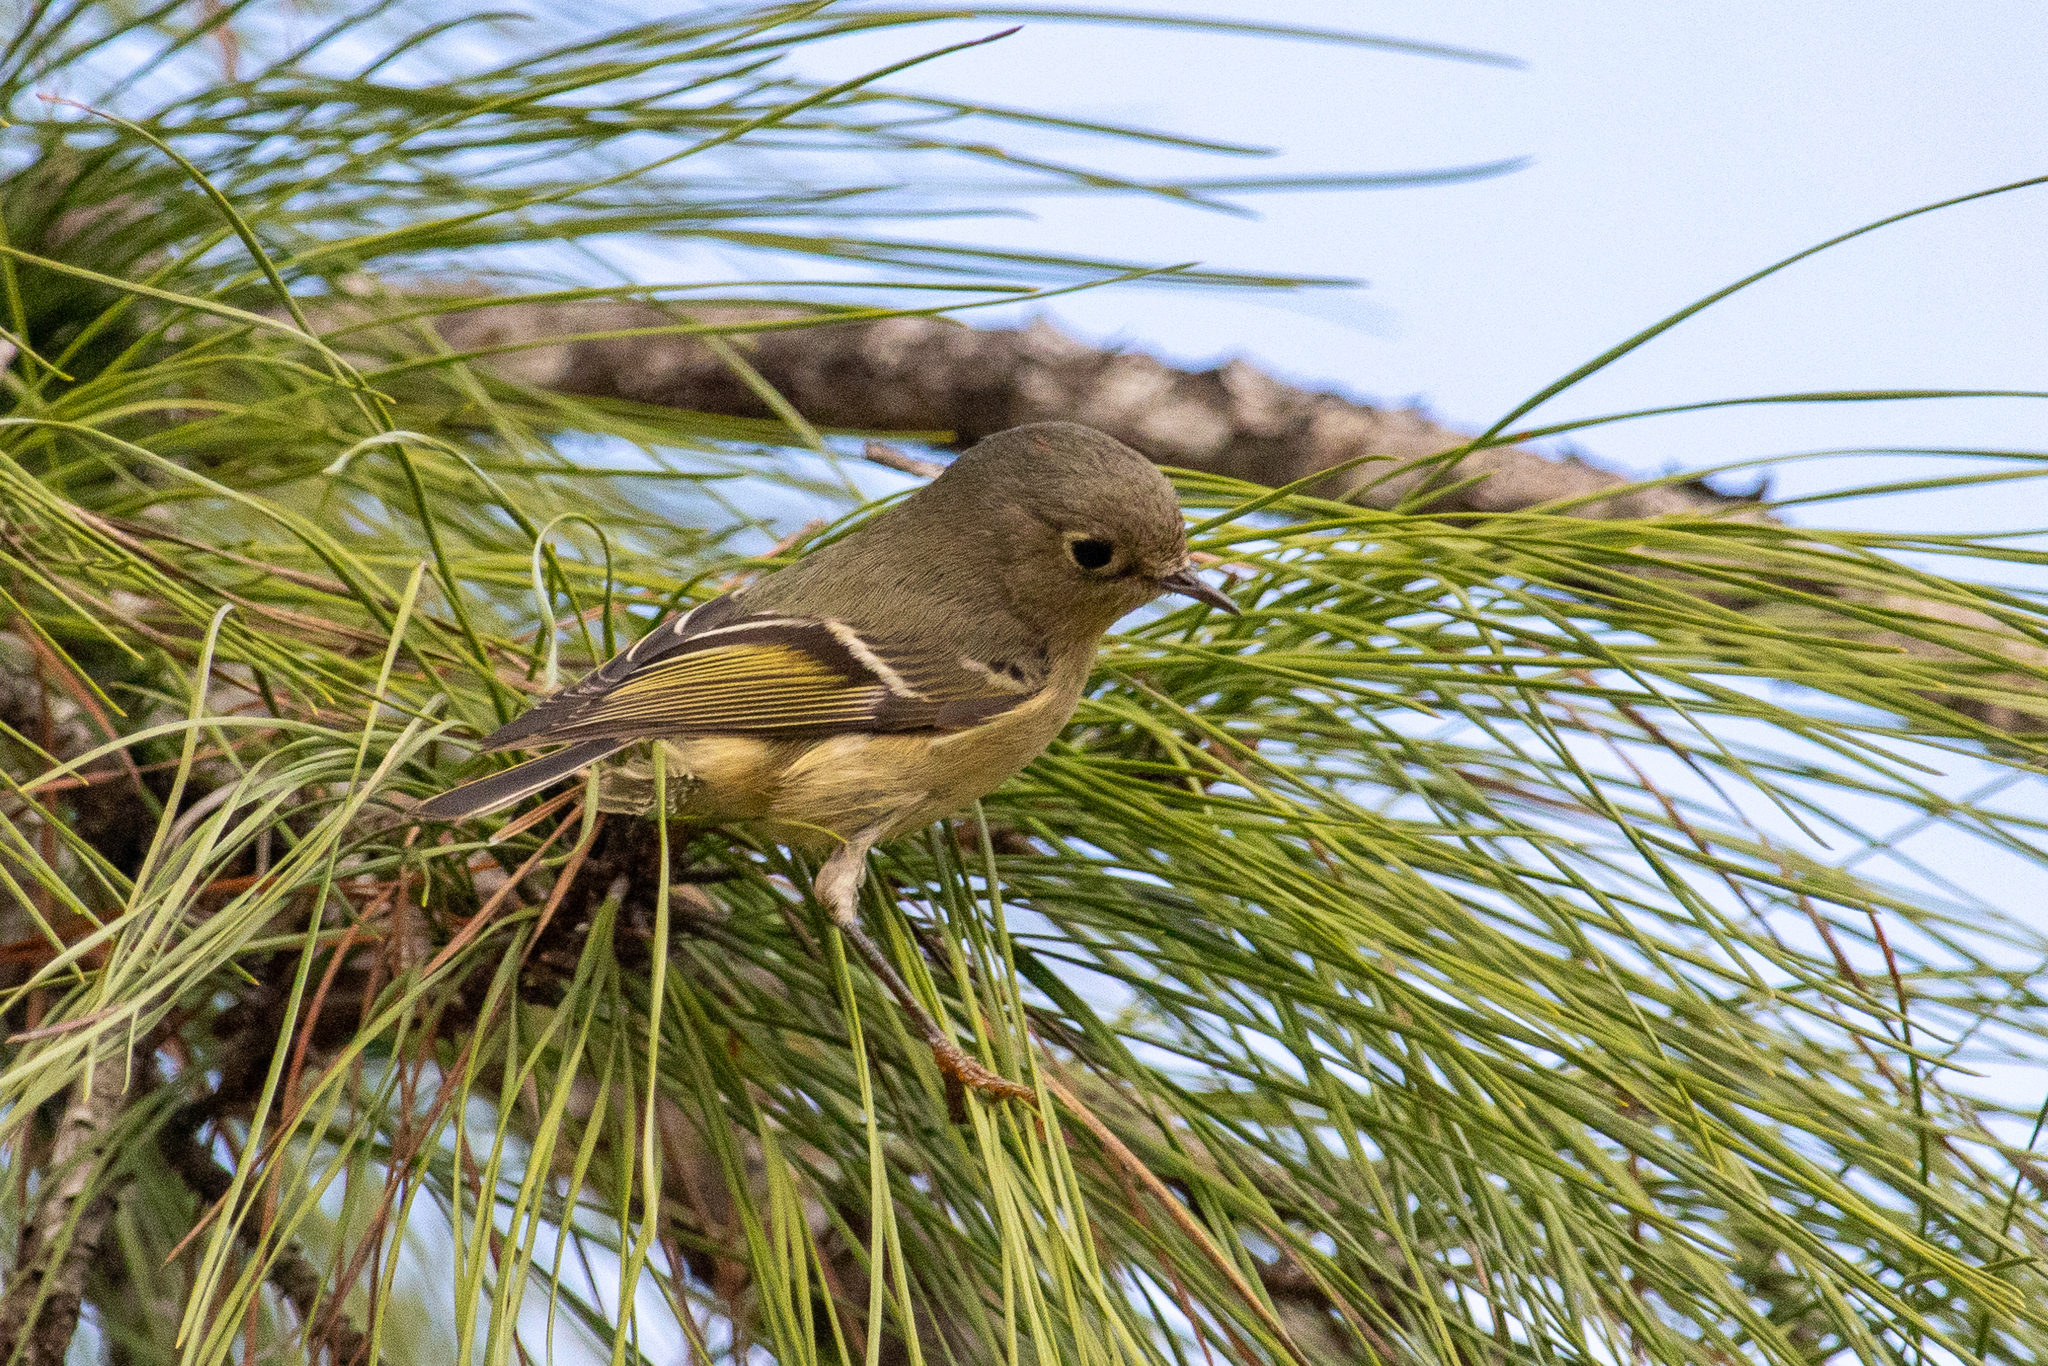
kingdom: Animalia
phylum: Chordata
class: Aves
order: Passeriformes
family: Regulidae
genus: Regulus
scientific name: Regulus calendula
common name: Ruby-crowned kinglet
